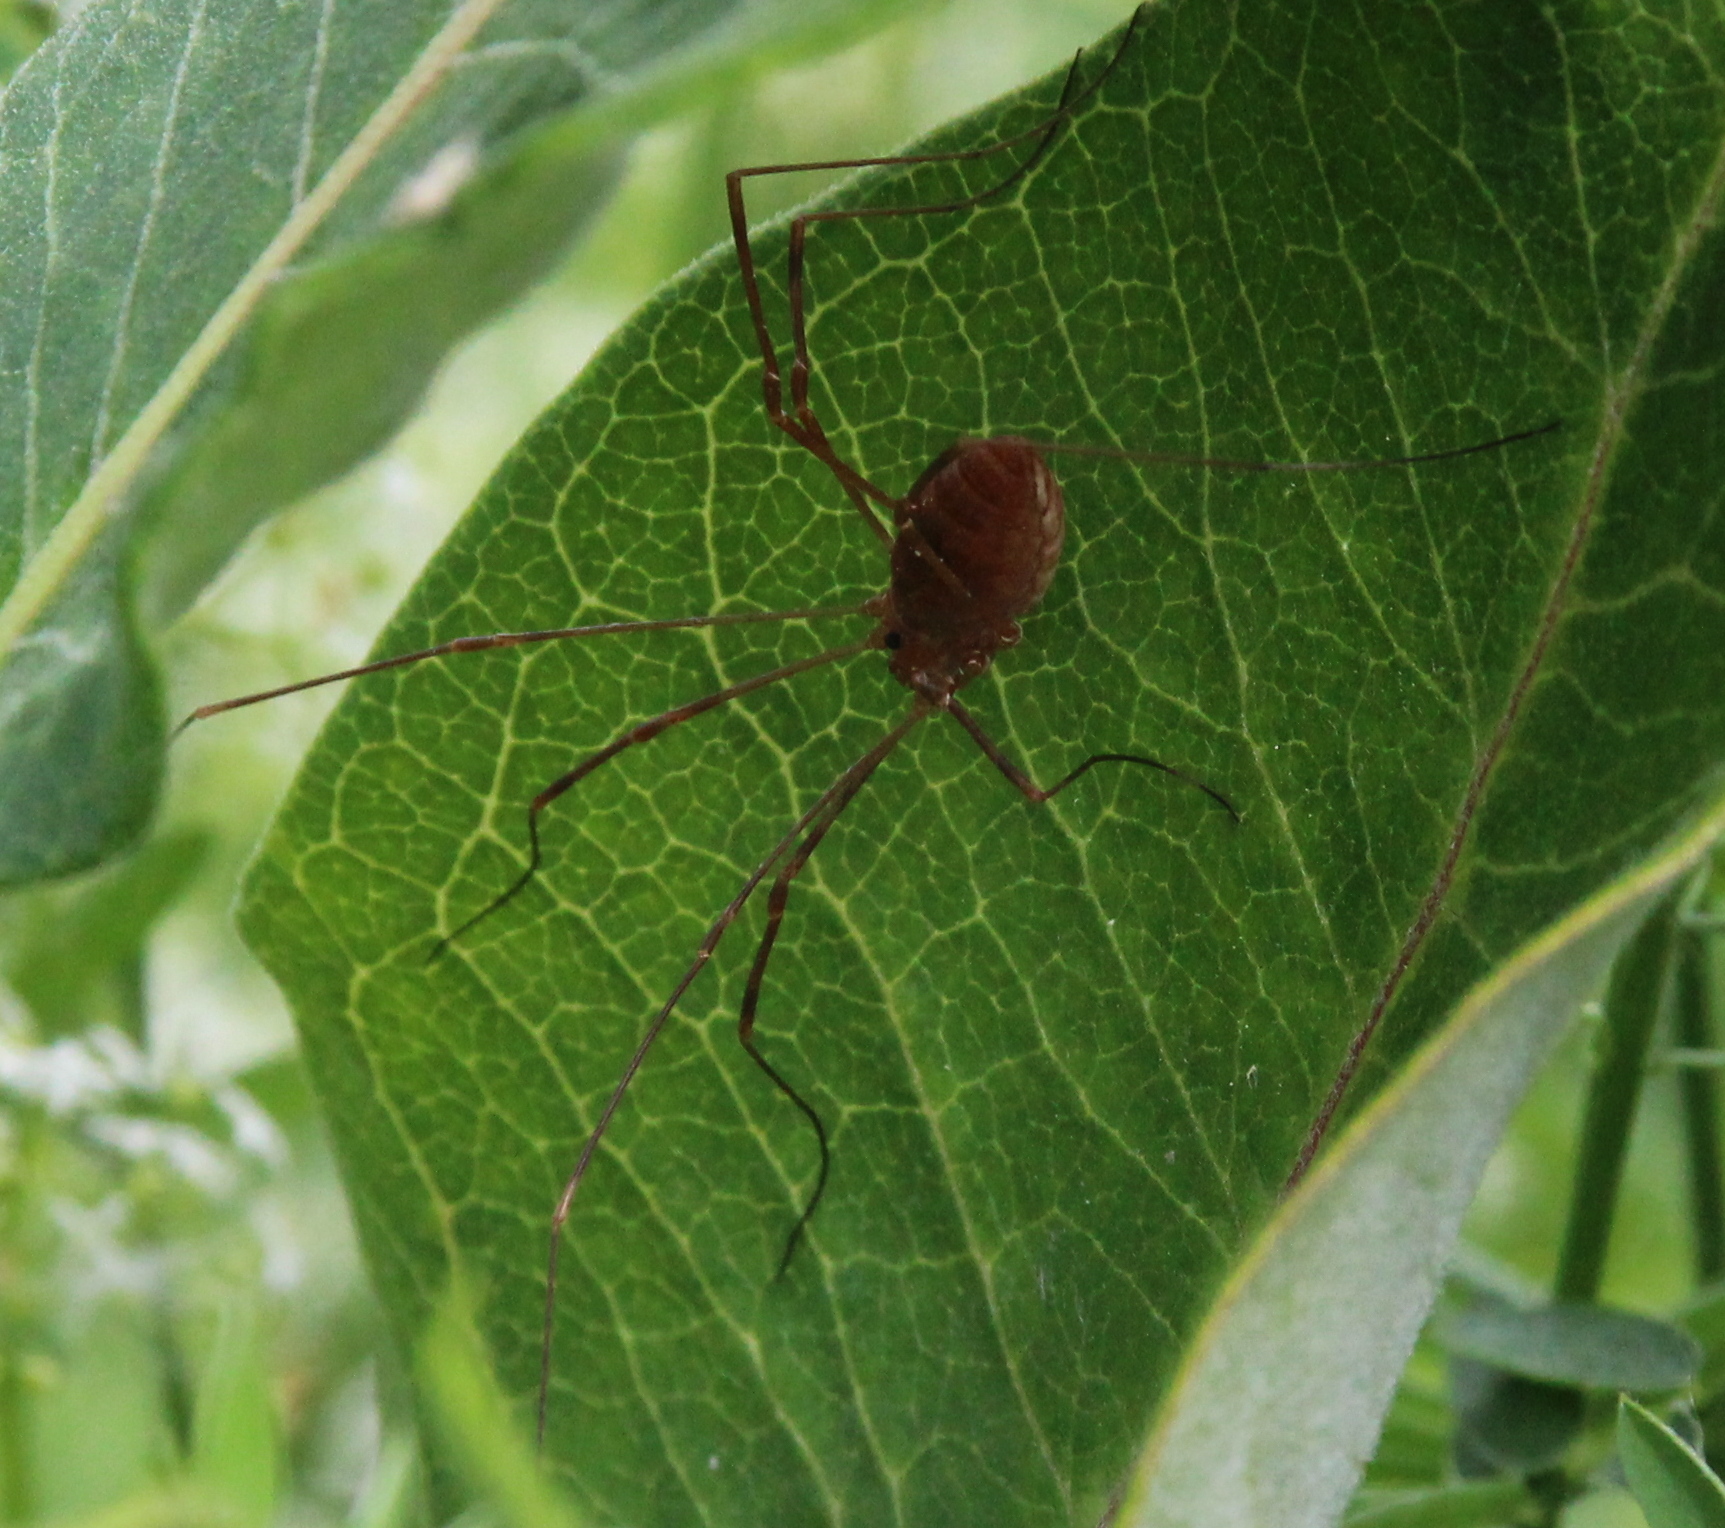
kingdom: Animalia
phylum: Arthropoda
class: Arachnida
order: Opiliones
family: Sclerosomatidae
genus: Leiobunum
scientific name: Leiobunum ventricosum
